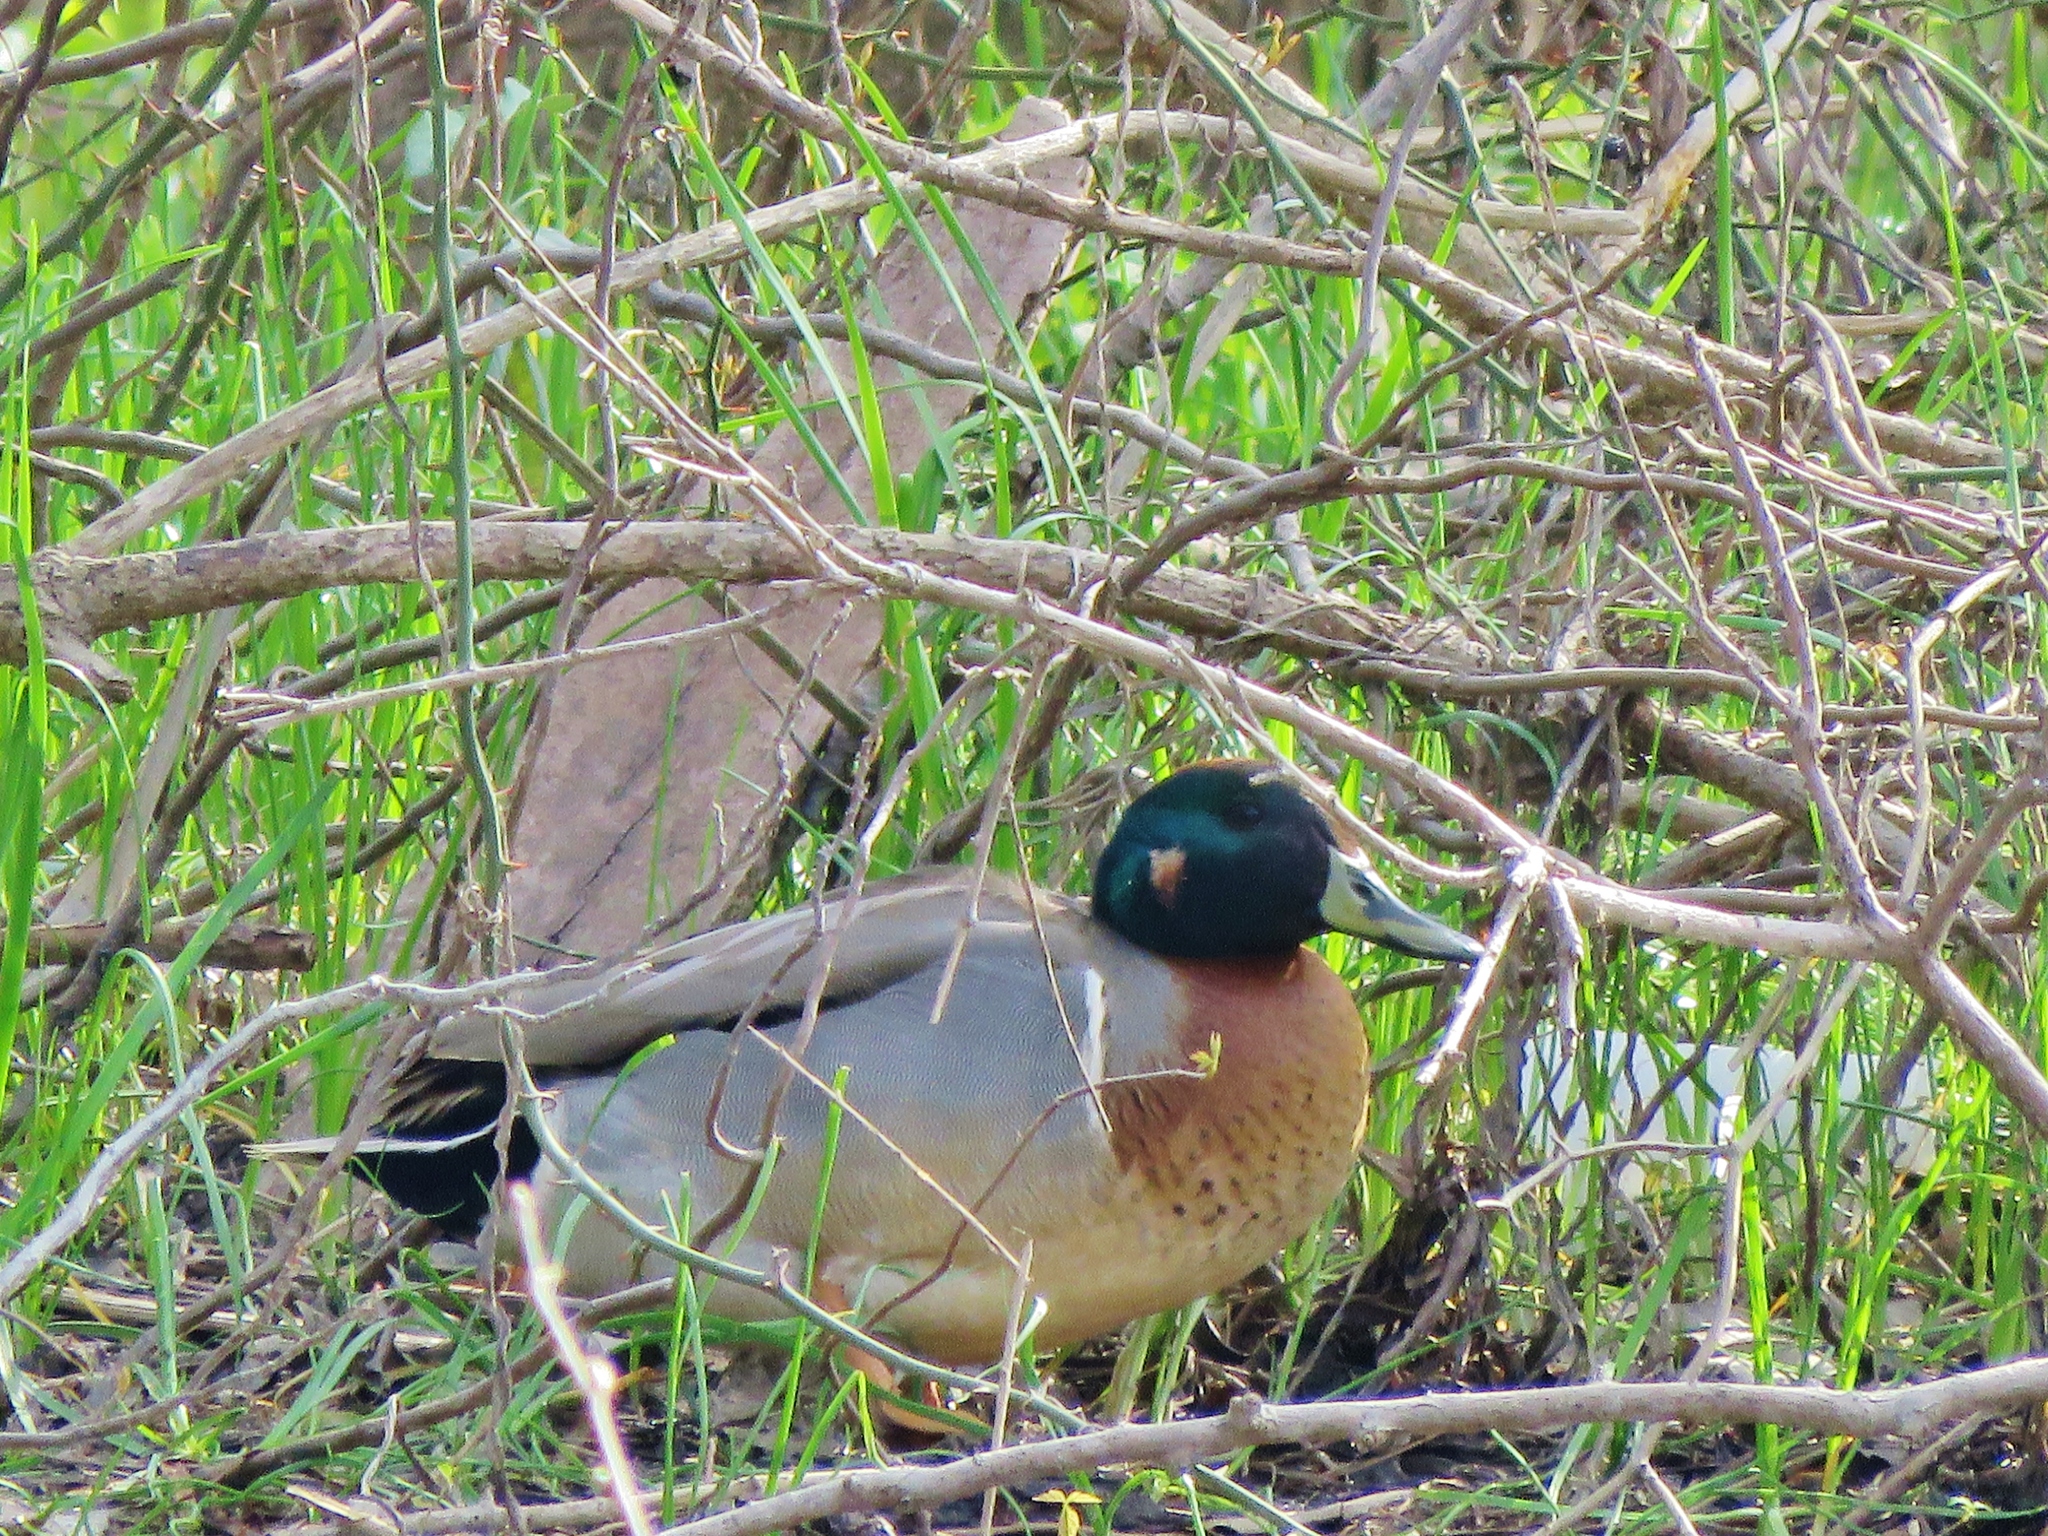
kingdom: Animalia
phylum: Chordata
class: Aves
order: Anseriformes
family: Anatidae
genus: Anas
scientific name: Anas
